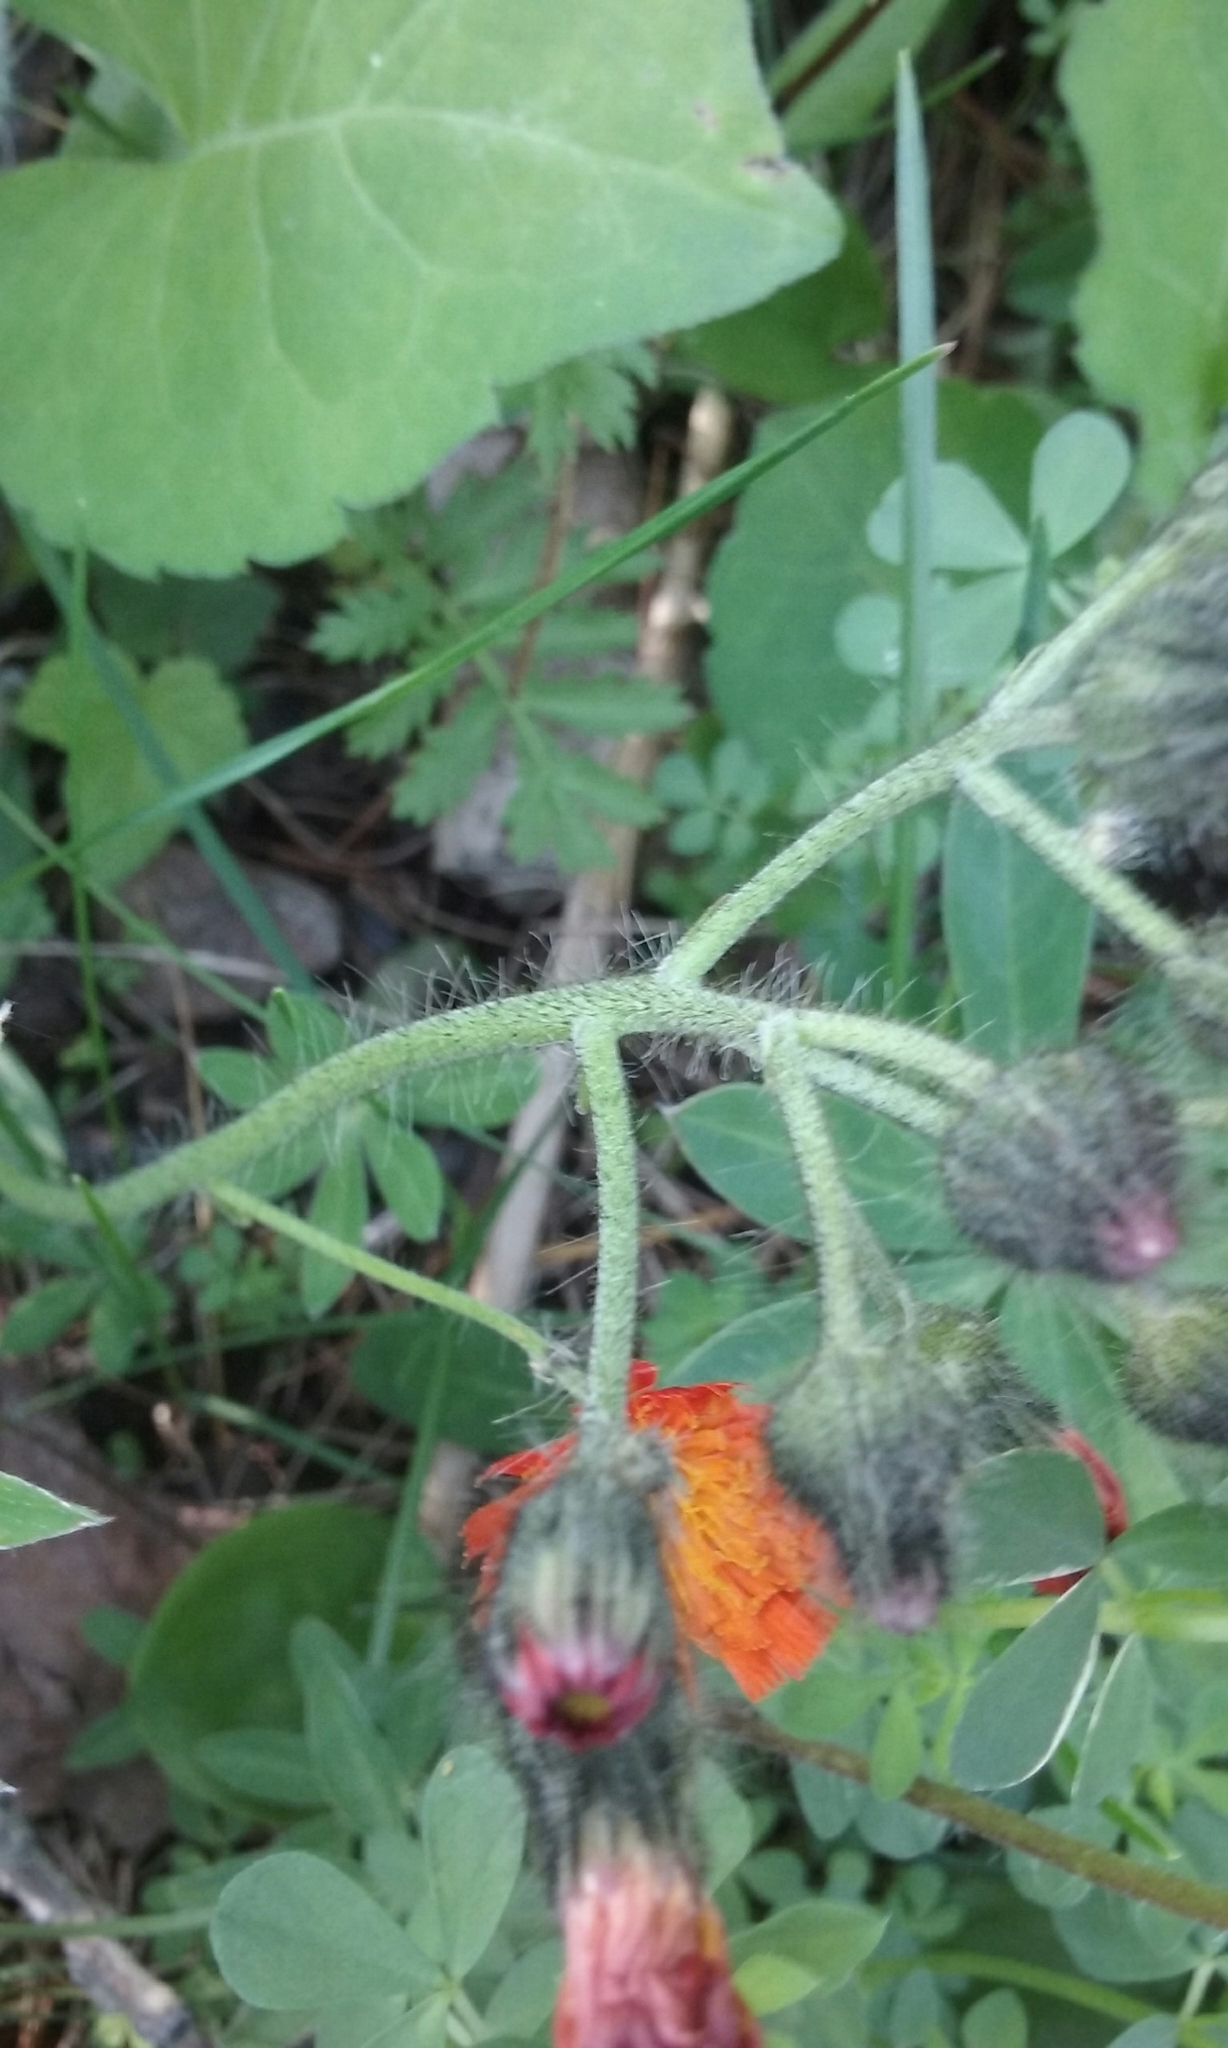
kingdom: Plantae
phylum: Tracheophyta
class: Magnoliopsida
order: Asterales
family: Asteraceae
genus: Pilosella
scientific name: Pilosella aurantiaca
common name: Fox-and-cubs
